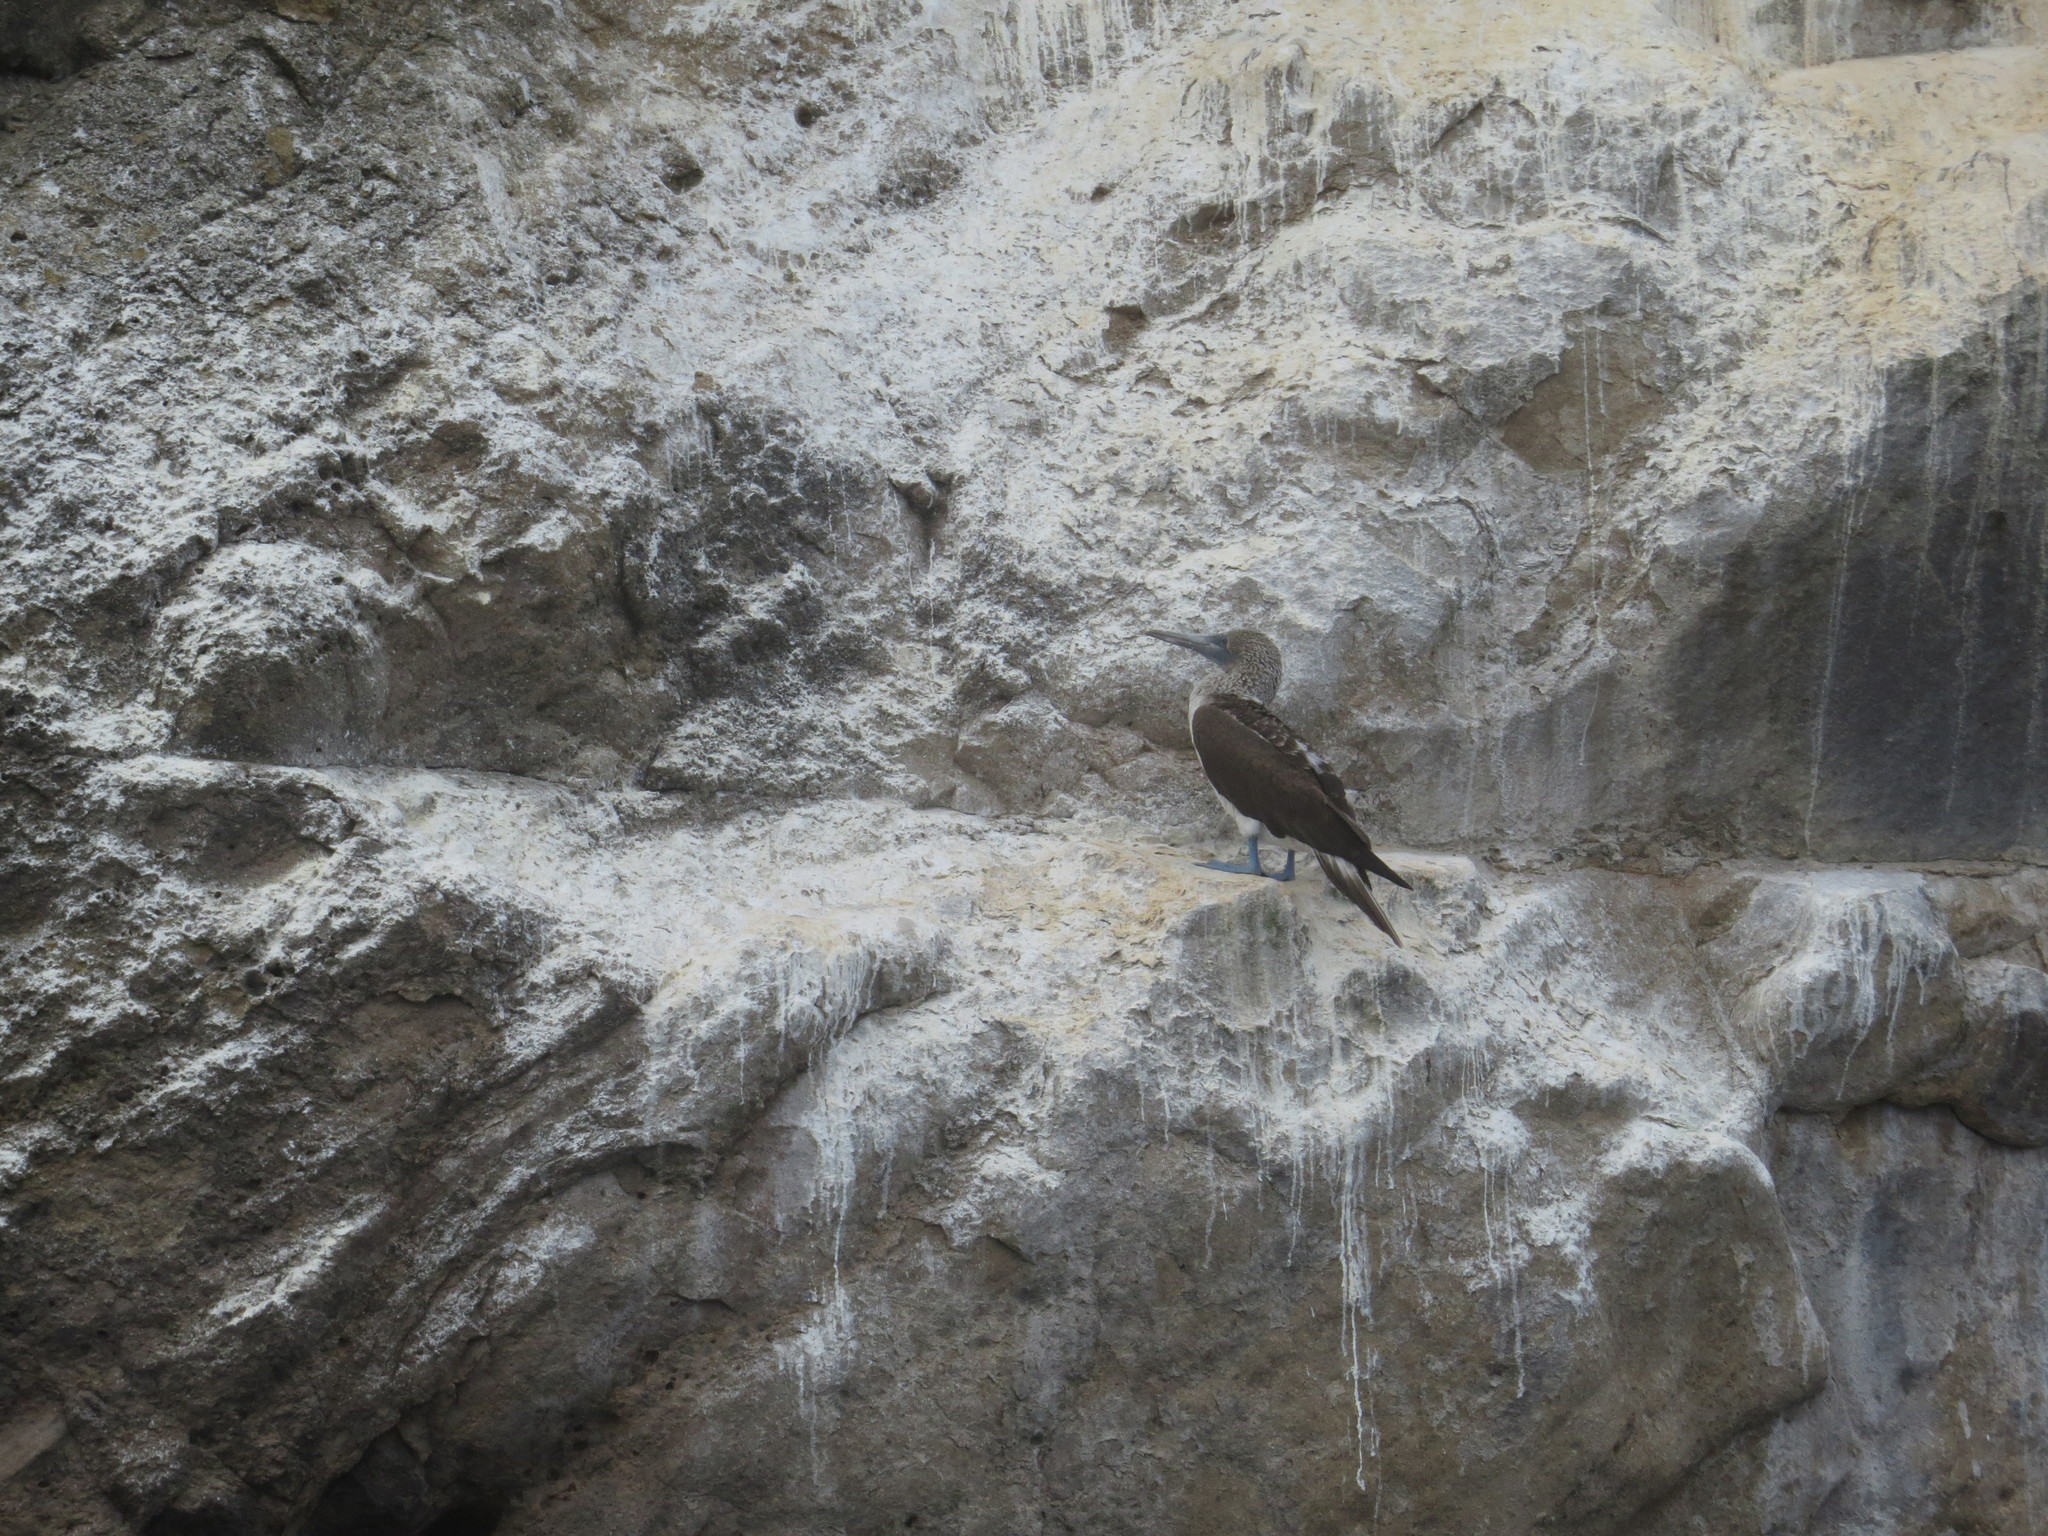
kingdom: Animalia
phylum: Chordata
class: Aves
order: Suliformes
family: Sulidae
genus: Sula
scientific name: Sula nebouxii
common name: Blue-footed booby
